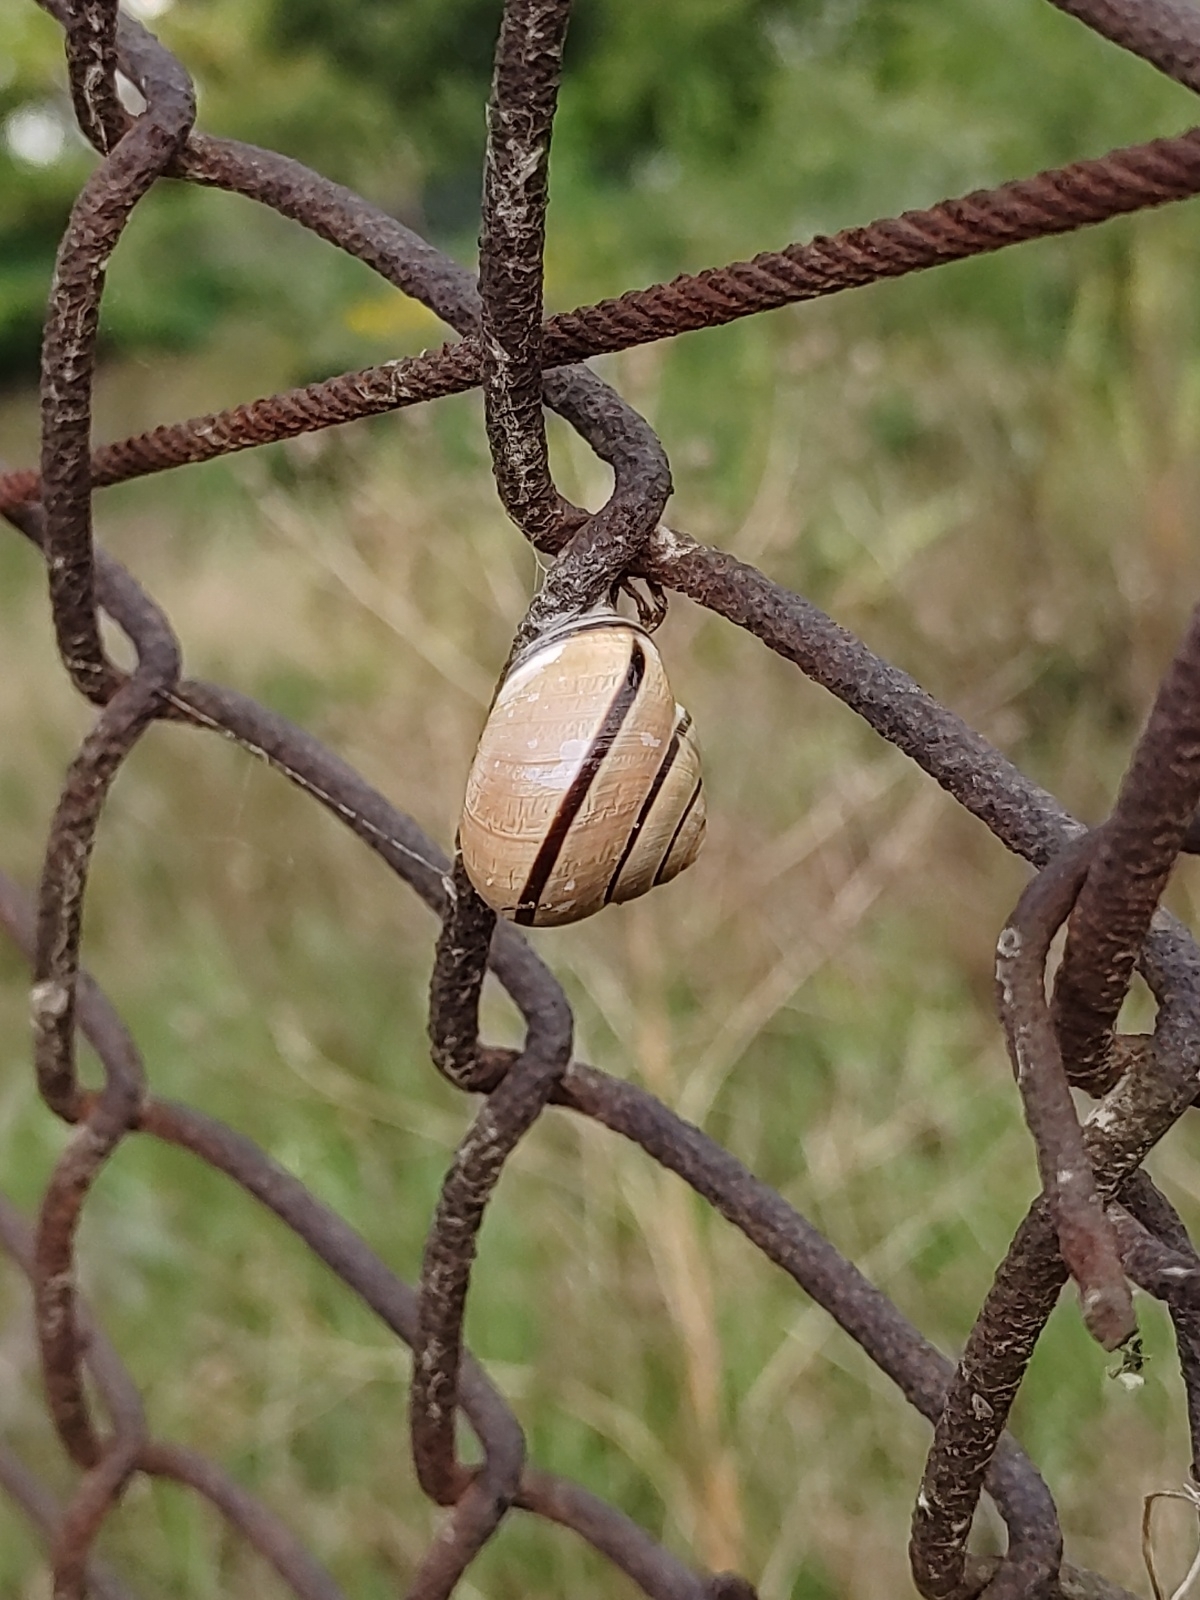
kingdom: Animalia
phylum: Mollusca
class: Gastropoda
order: Stylommatophora
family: Helicidae
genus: Cepaea
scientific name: Cepaea nemoralis
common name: Grovesnail
